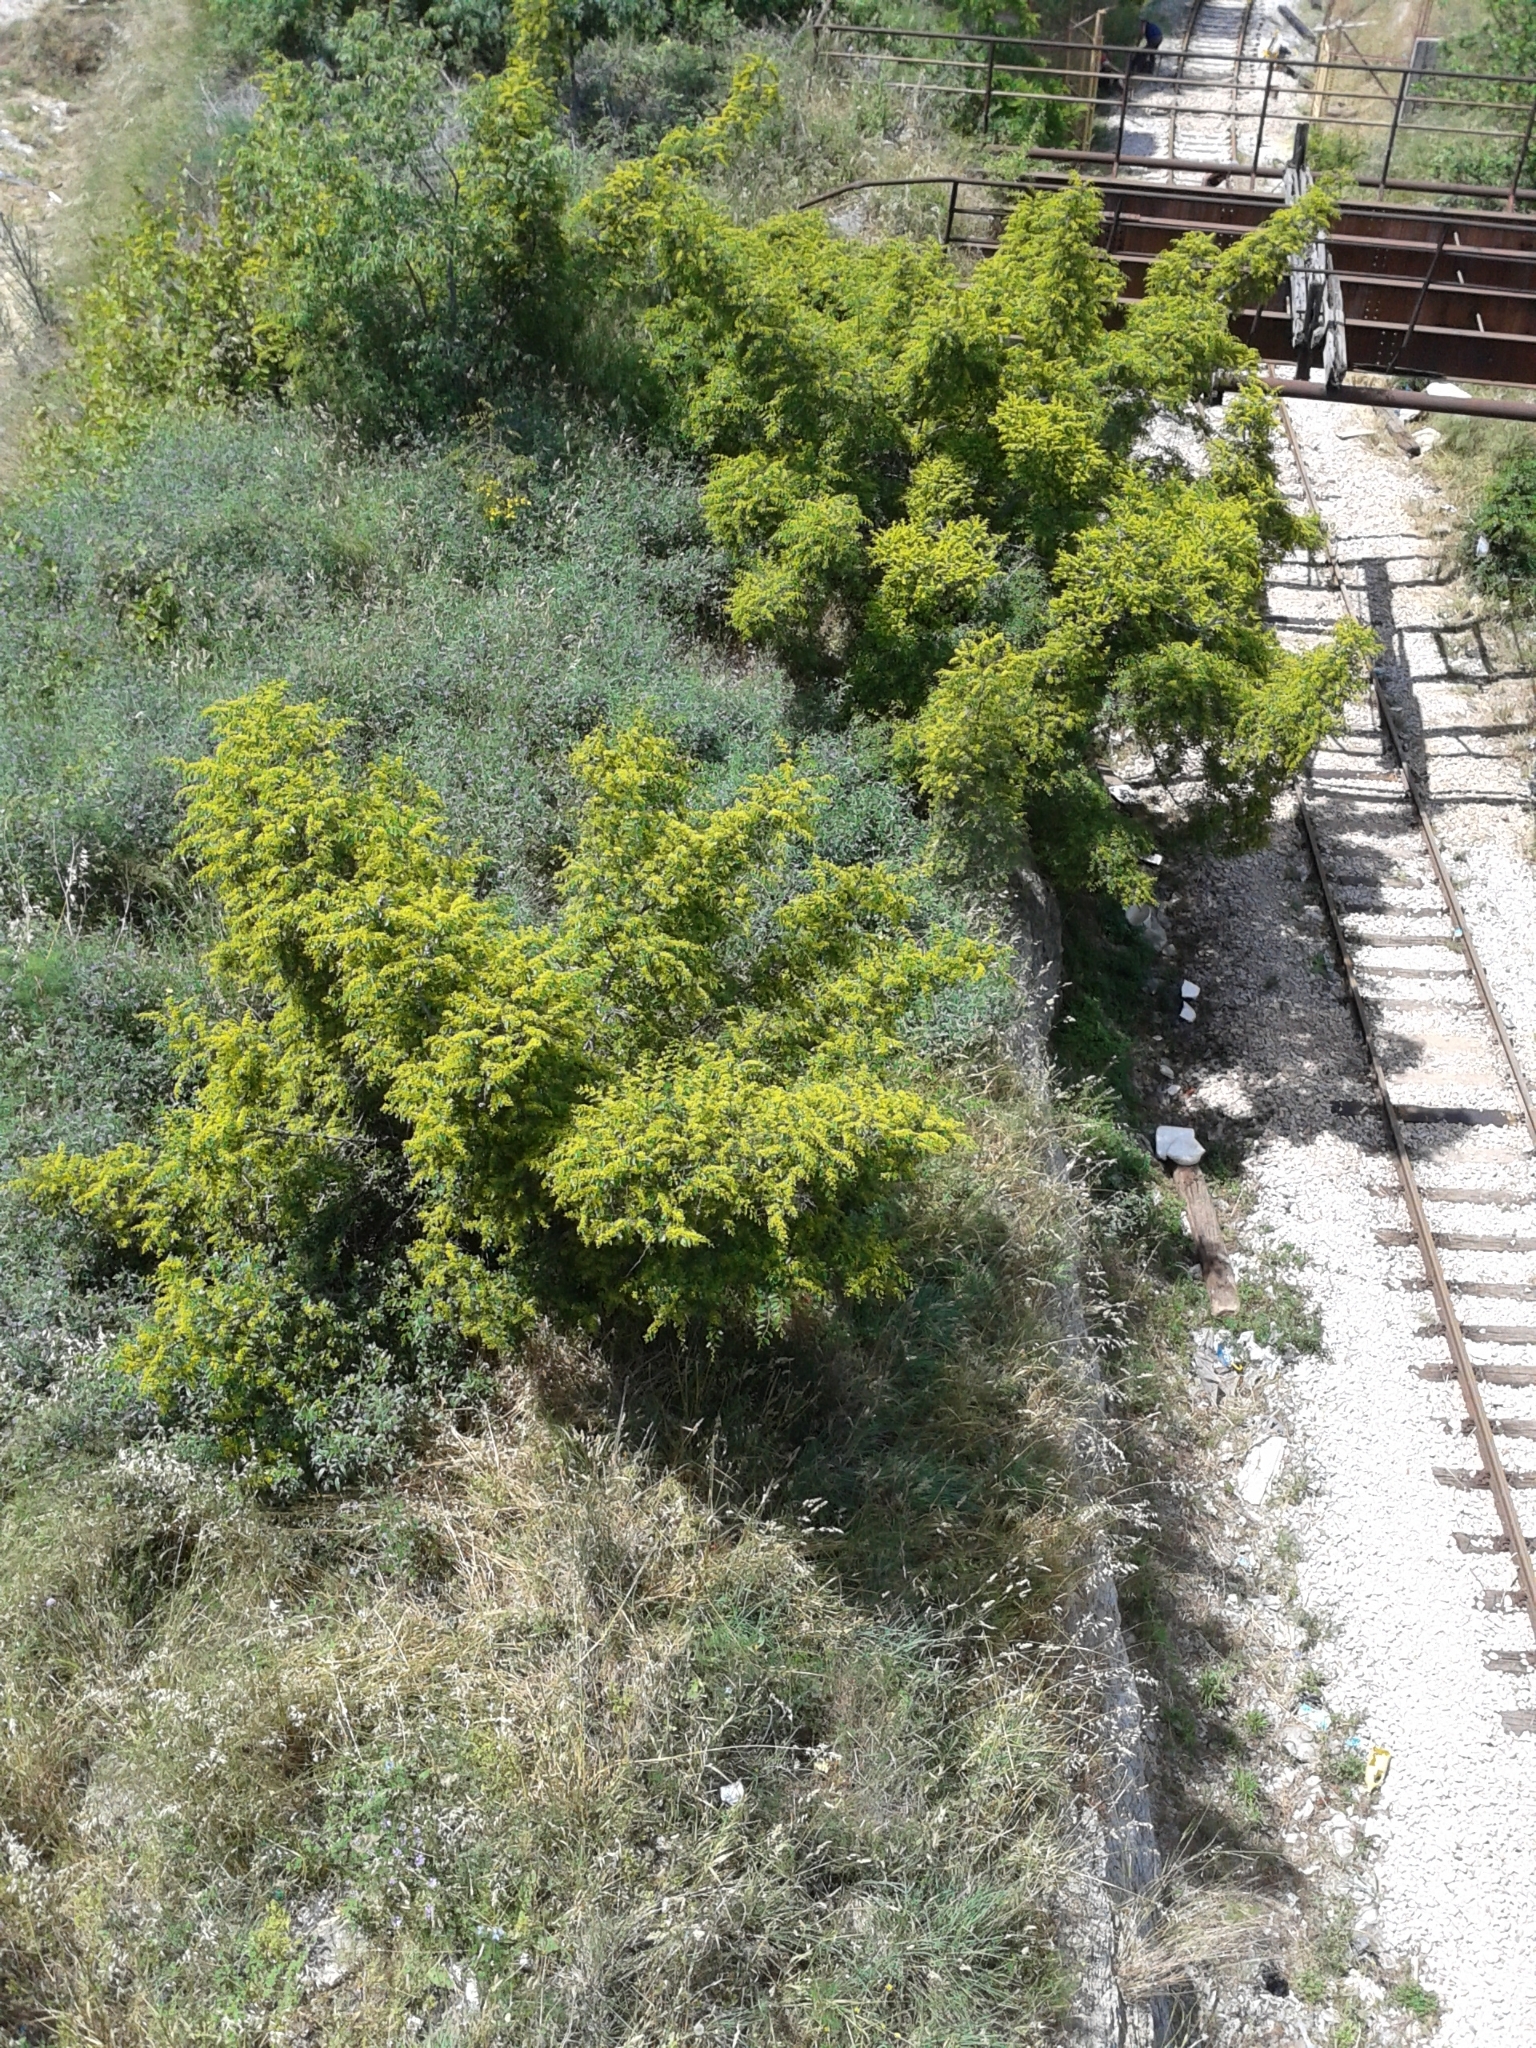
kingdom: Plantae
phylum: Tracheophyta
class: Magnoliopsida
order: Rosales
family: Rhamnaceae
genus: Paliurus
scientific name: Paliurus spina-christi
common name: Jeruselem thorn
